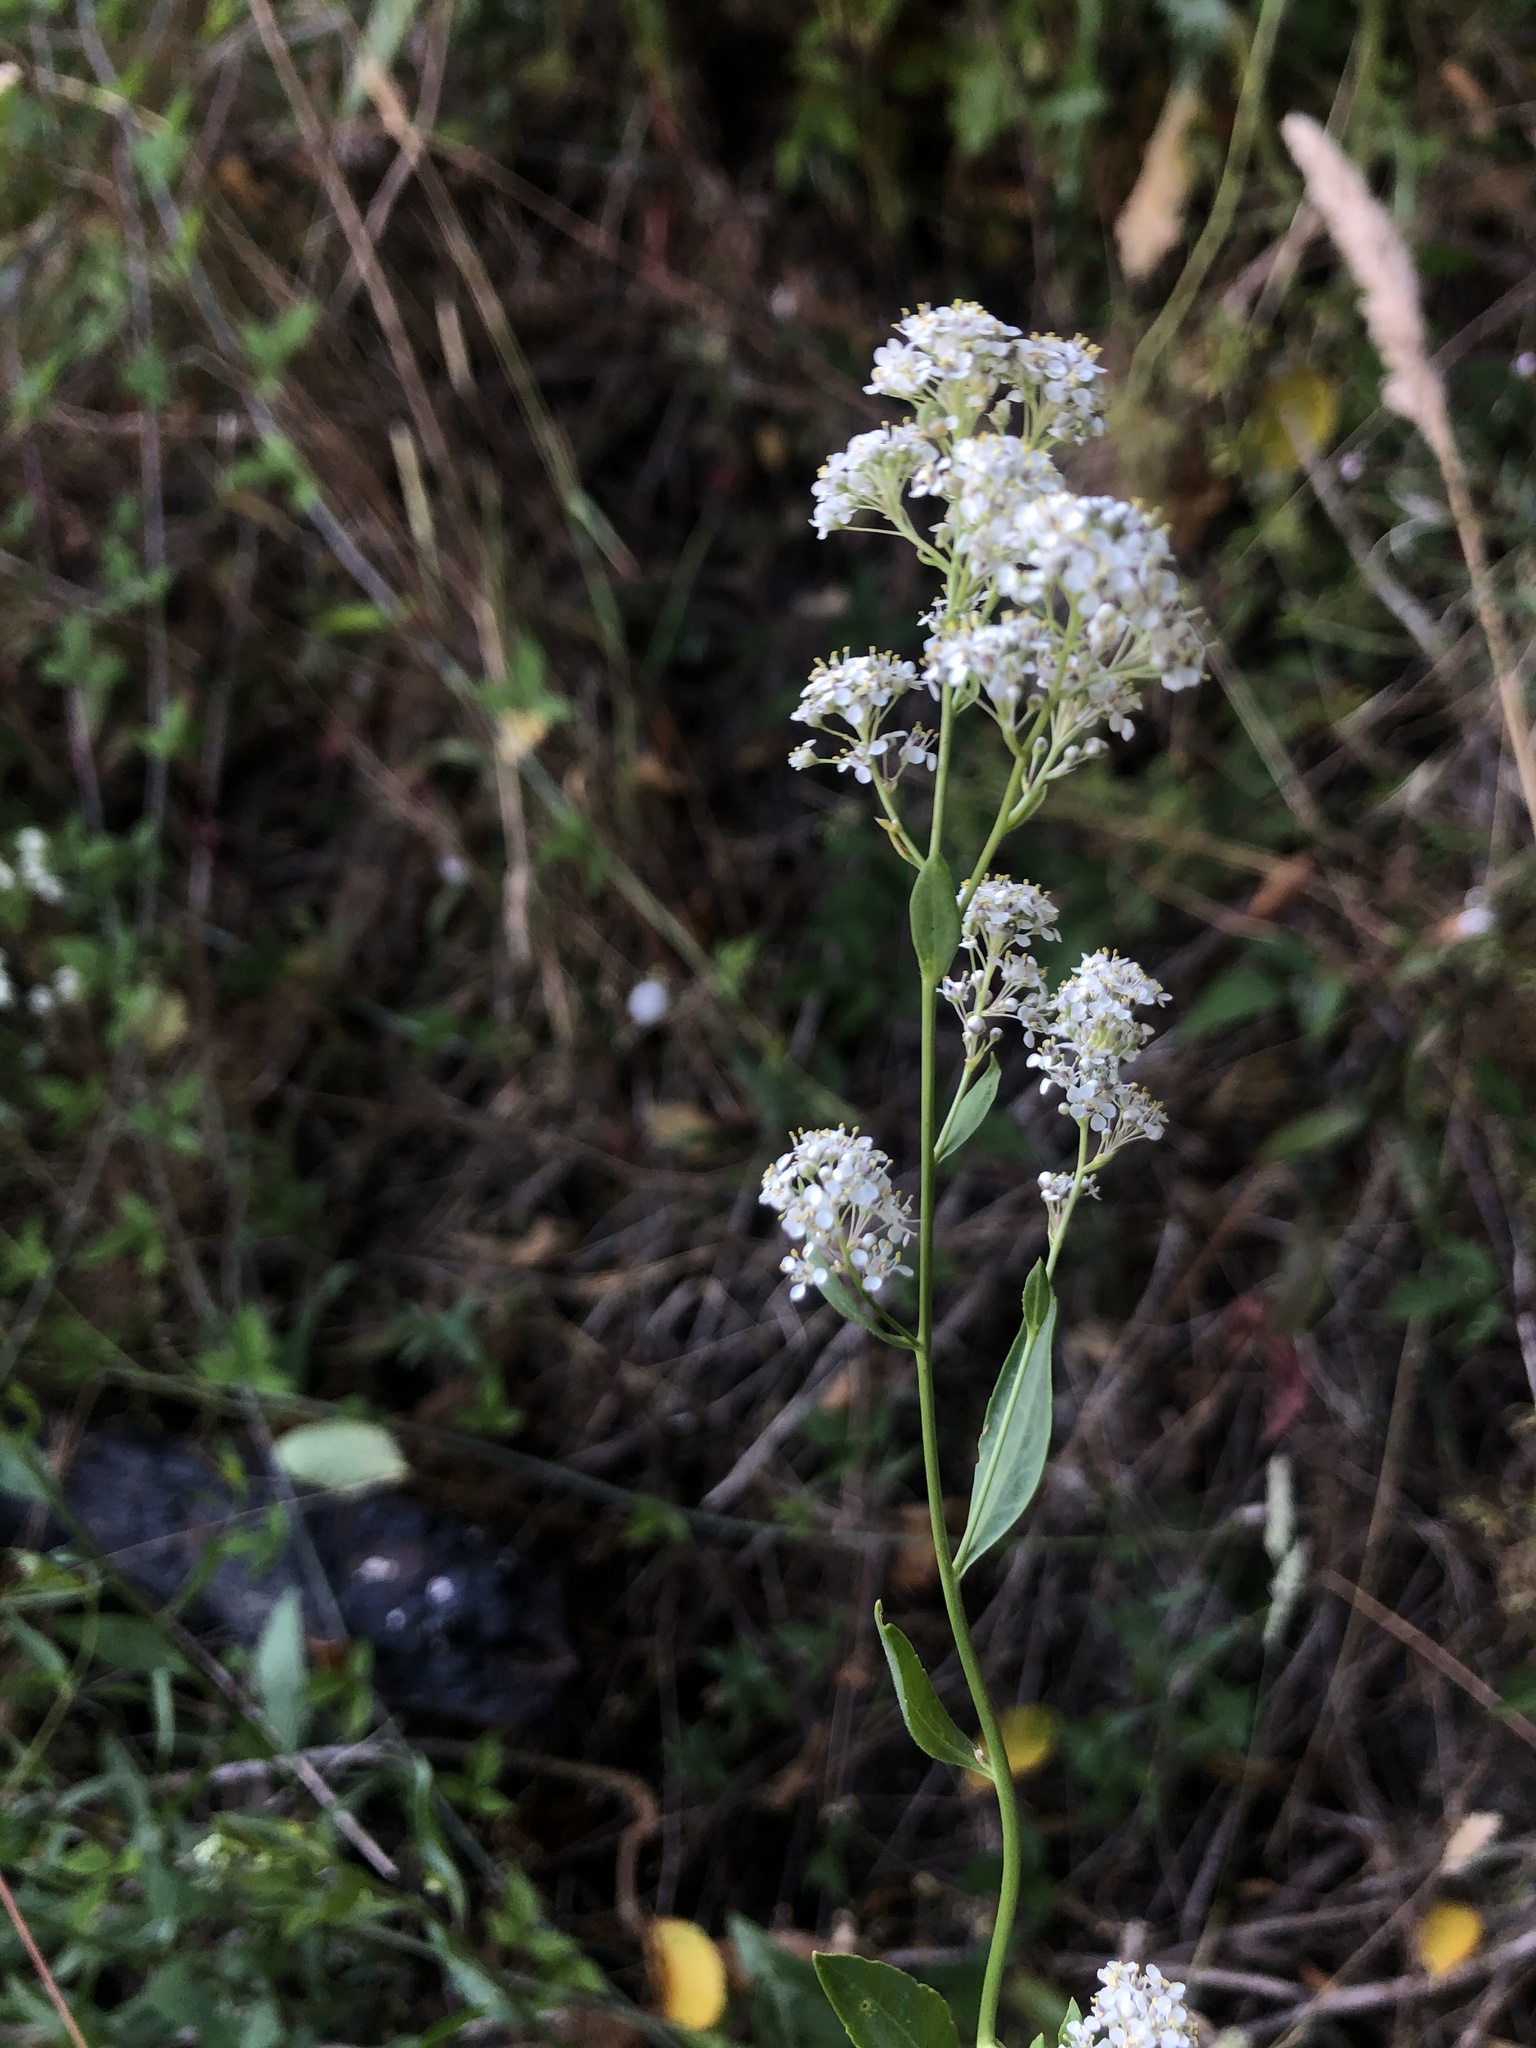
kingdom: Plantae
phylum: Tracheophyta
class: Magnoliopsida
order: Brassicales
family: Brassicaceae
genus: Lepidium
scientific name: Lepidium latifolium
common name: Dittander
